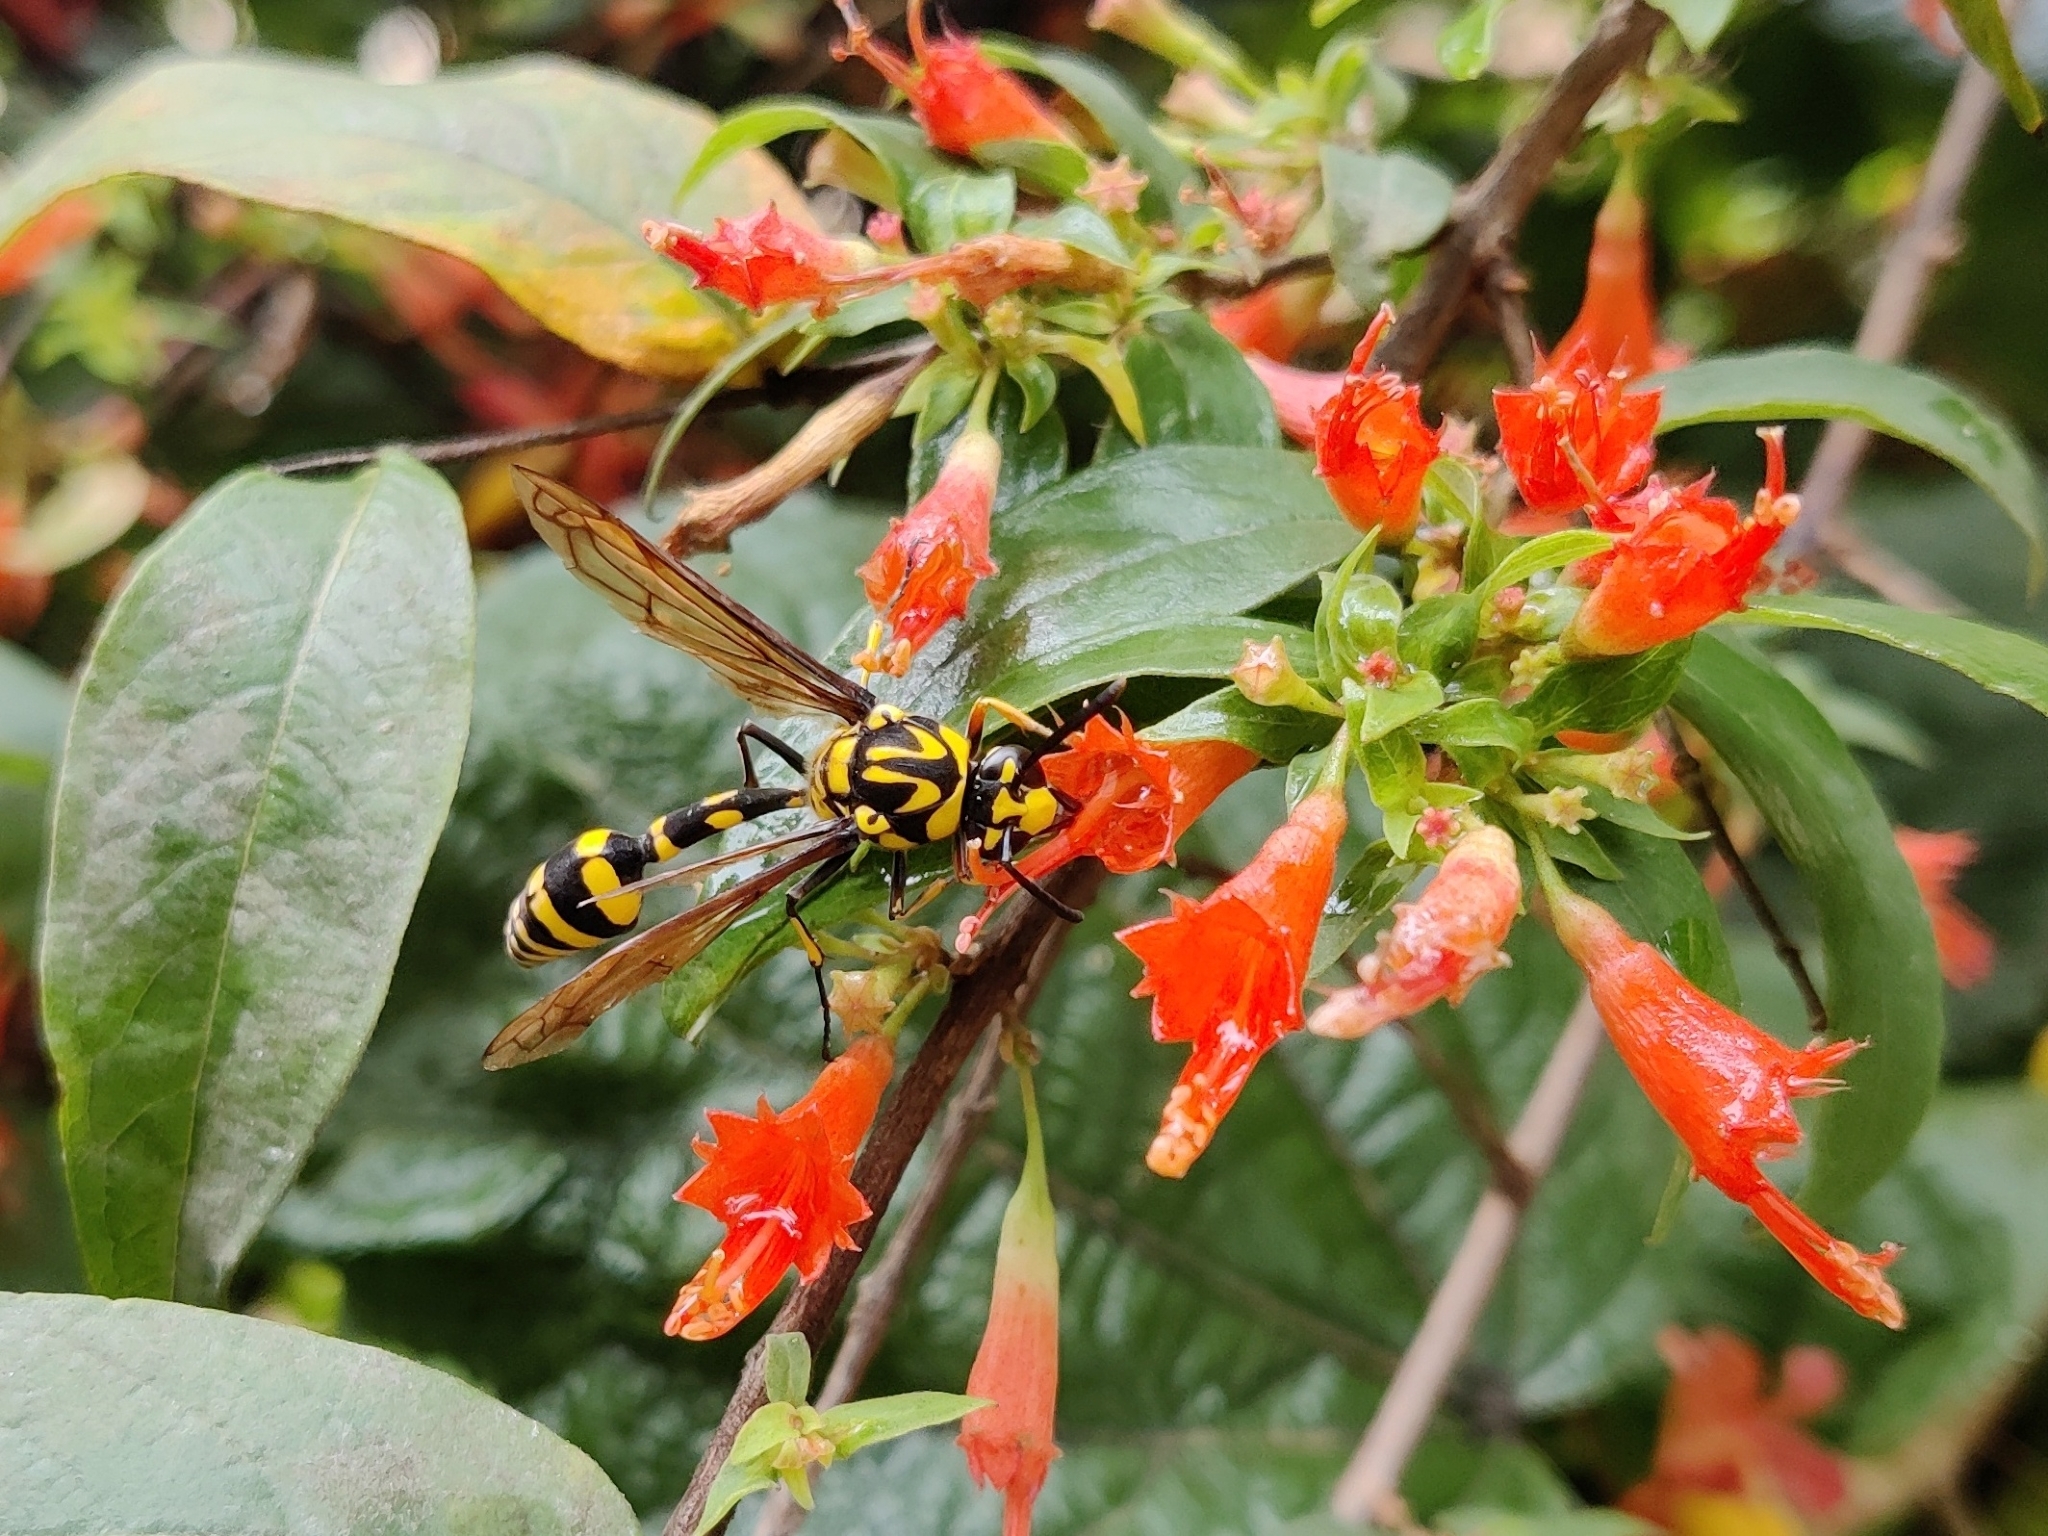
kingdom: Animalia
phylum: Arthropoda
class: Insecta
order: Hymenoptera
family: Eumenidae
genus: Phimenes
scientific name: Phimenes flavopictus
